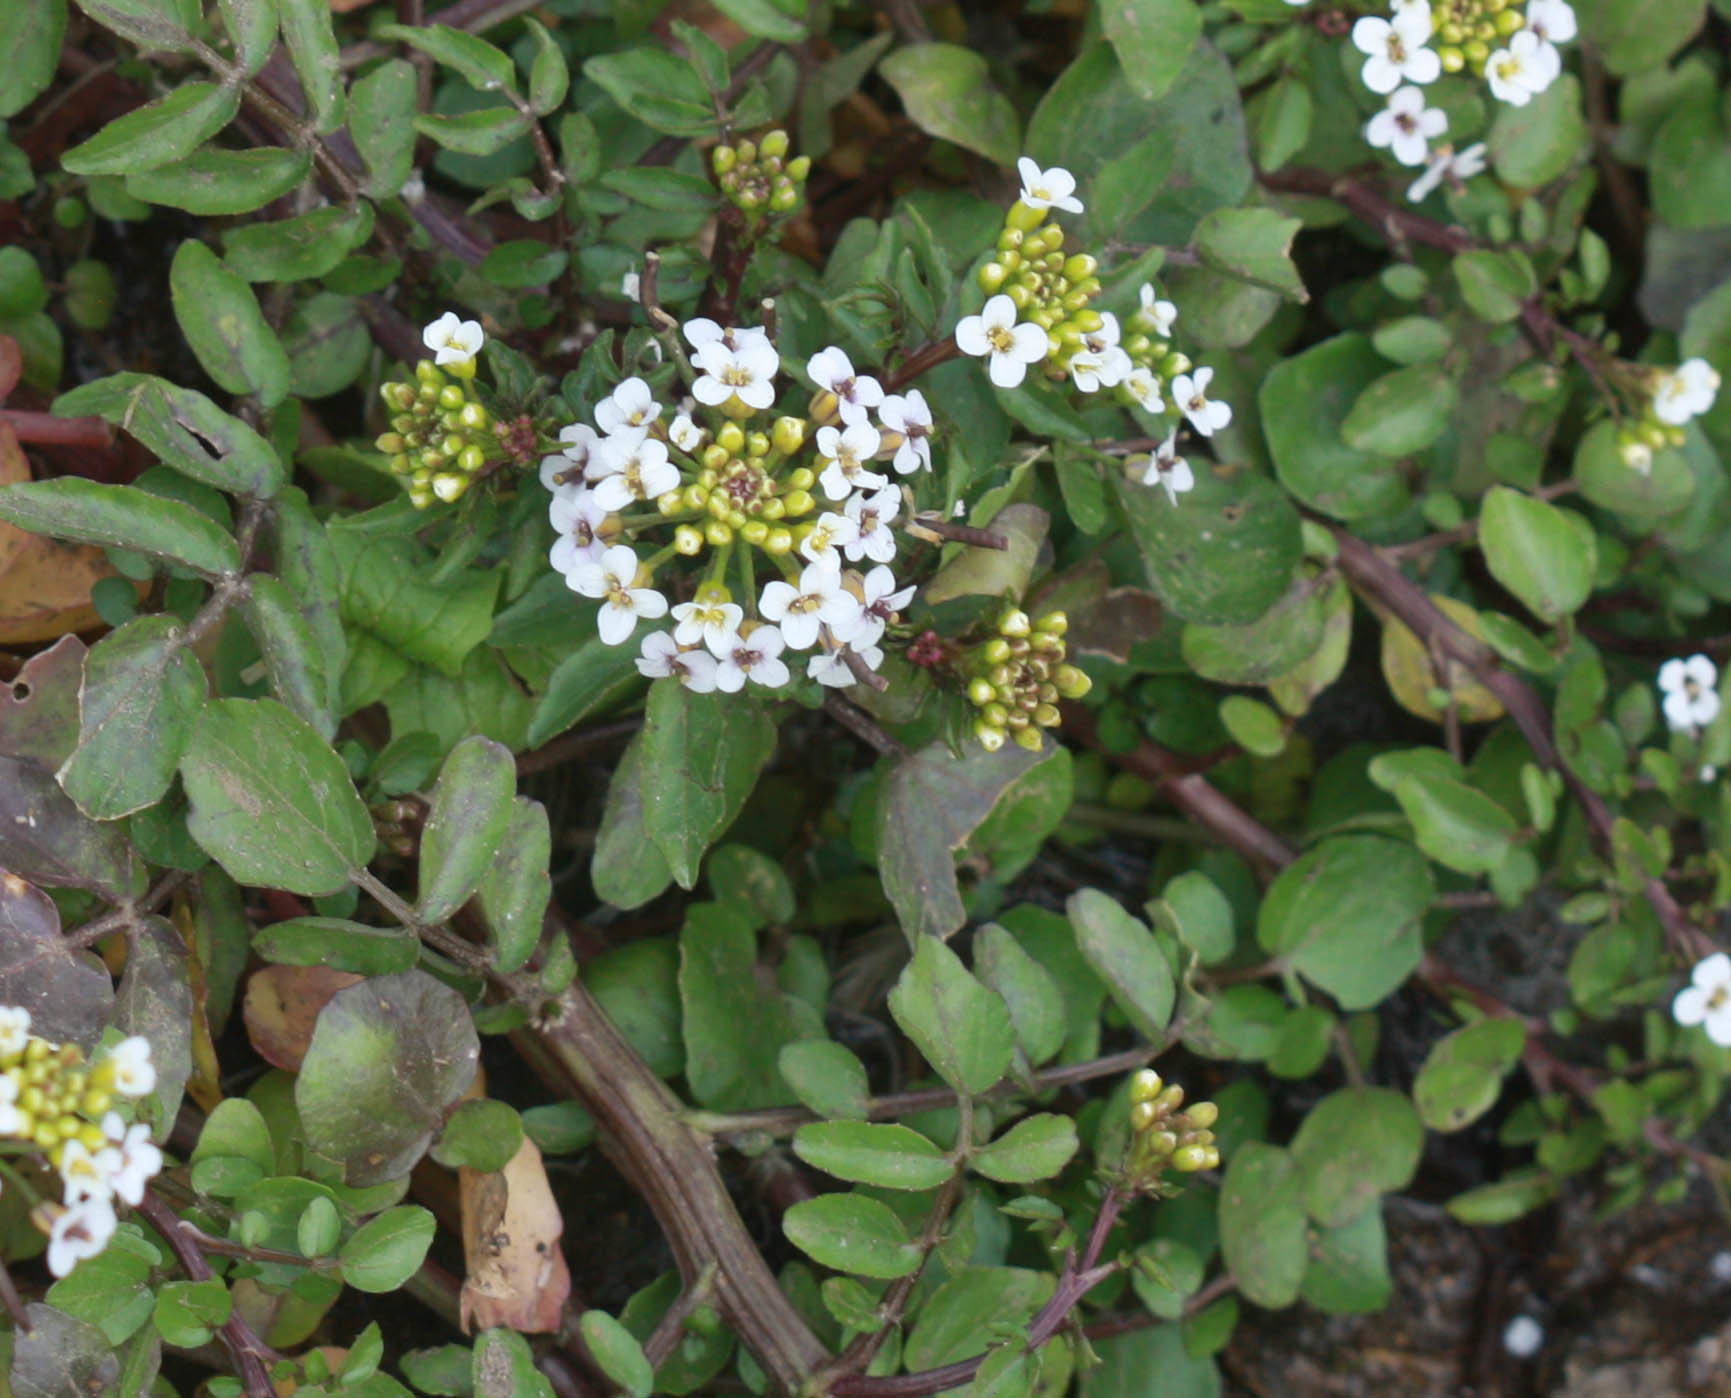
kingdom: Plantae
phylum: Tracheophyta
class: Magnoliopsida
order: Brassicales
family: Brassicaceae
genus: Nasturtium
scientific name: Nasturtium officinale
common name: Watercress
